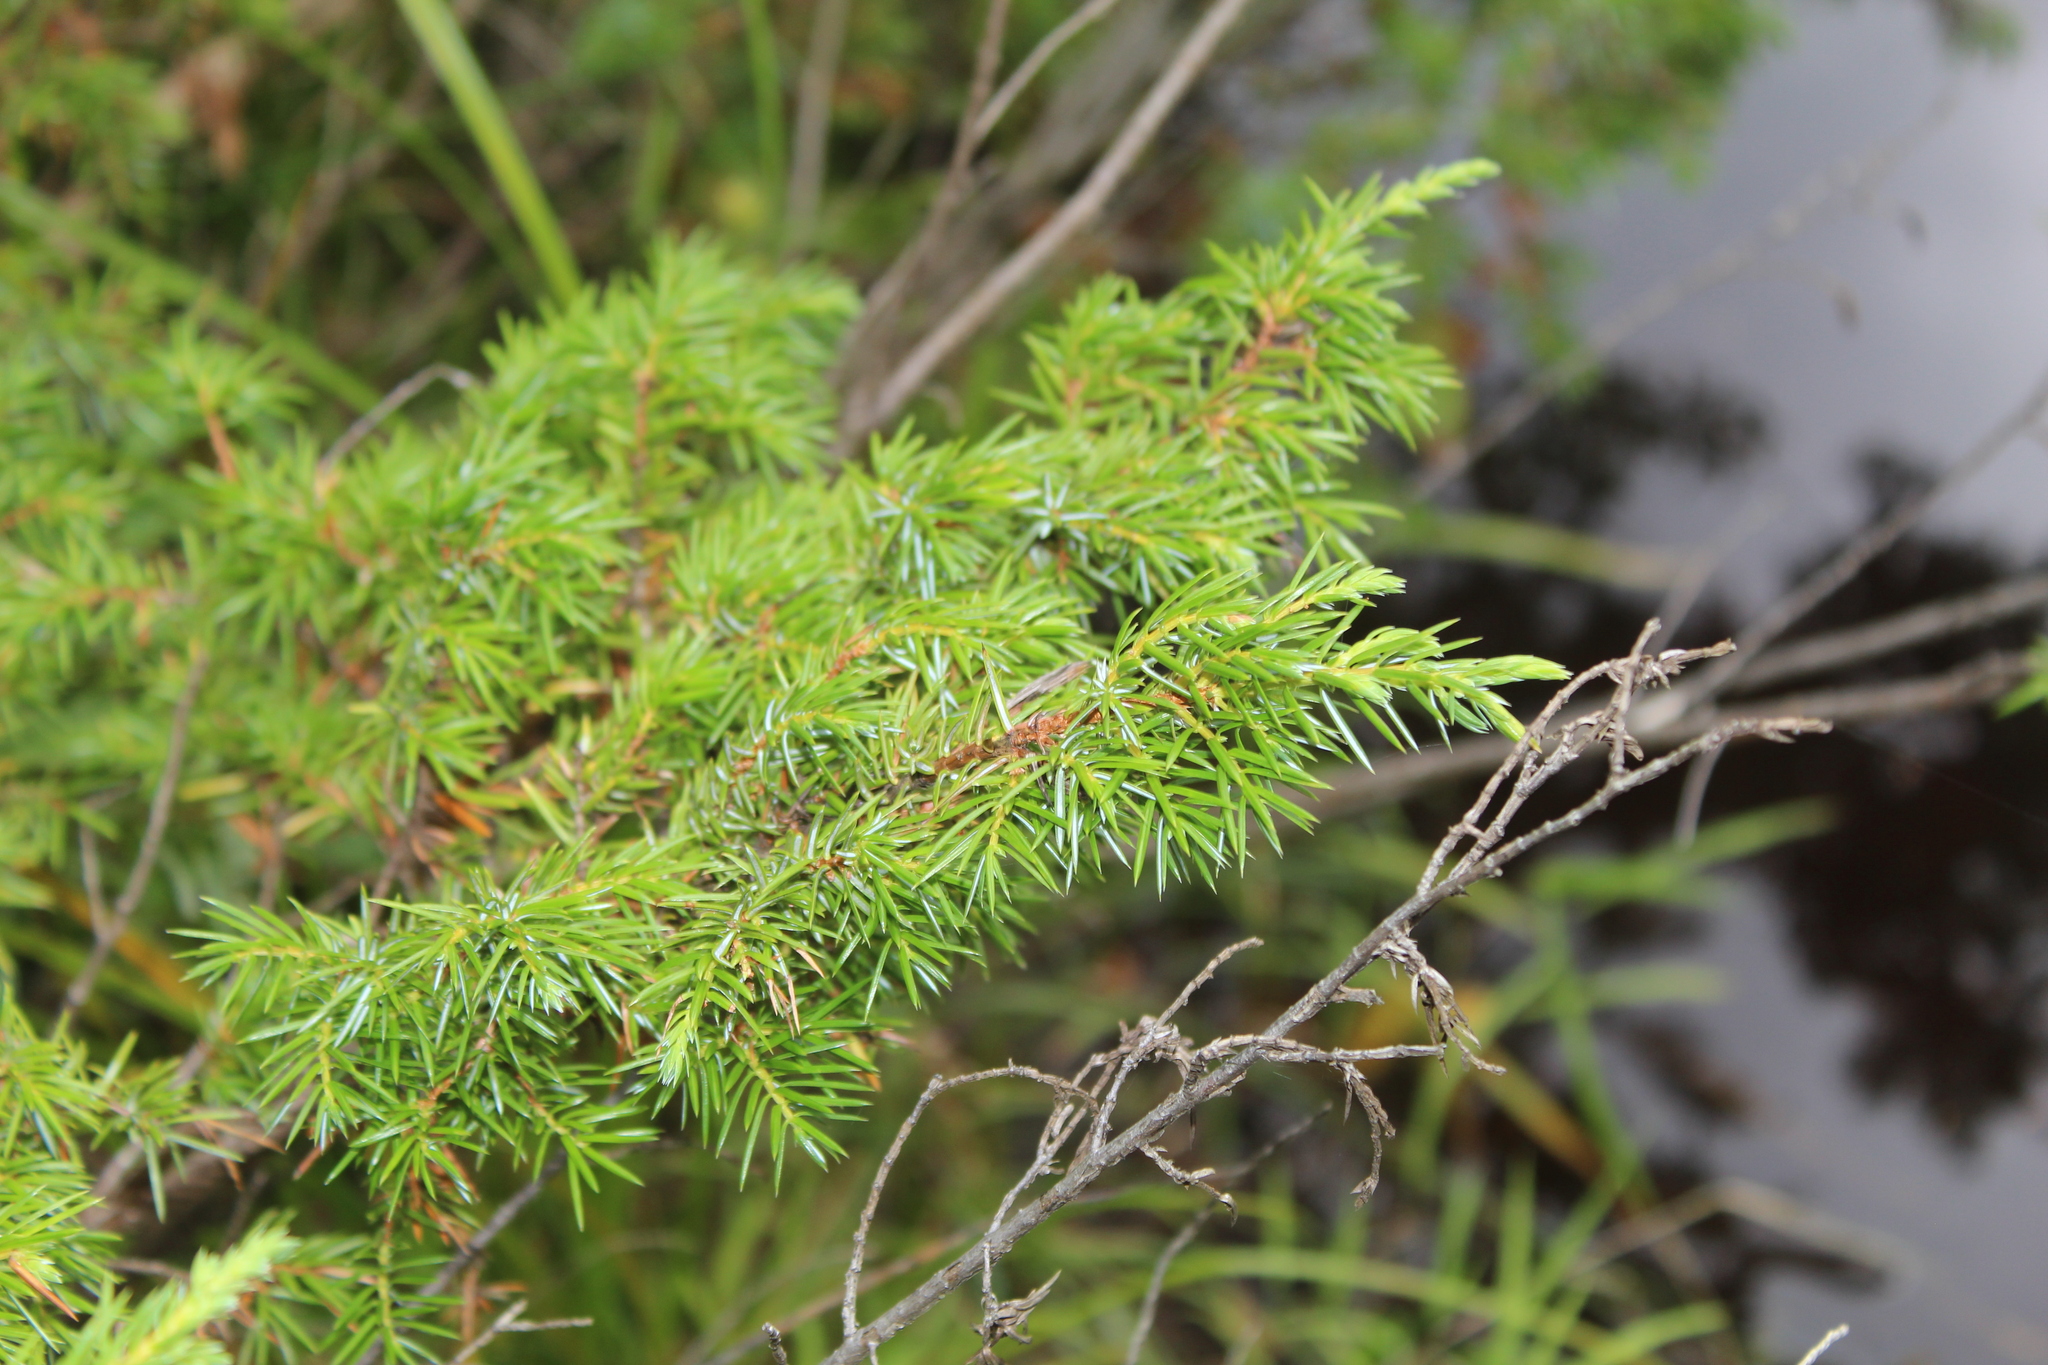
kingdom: Plantae
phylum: Tracheophyta
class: Pinopsida
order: Pinales
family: Cupressaceae
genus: Juniperus
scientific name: Juniperus communis
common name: Common juniper
